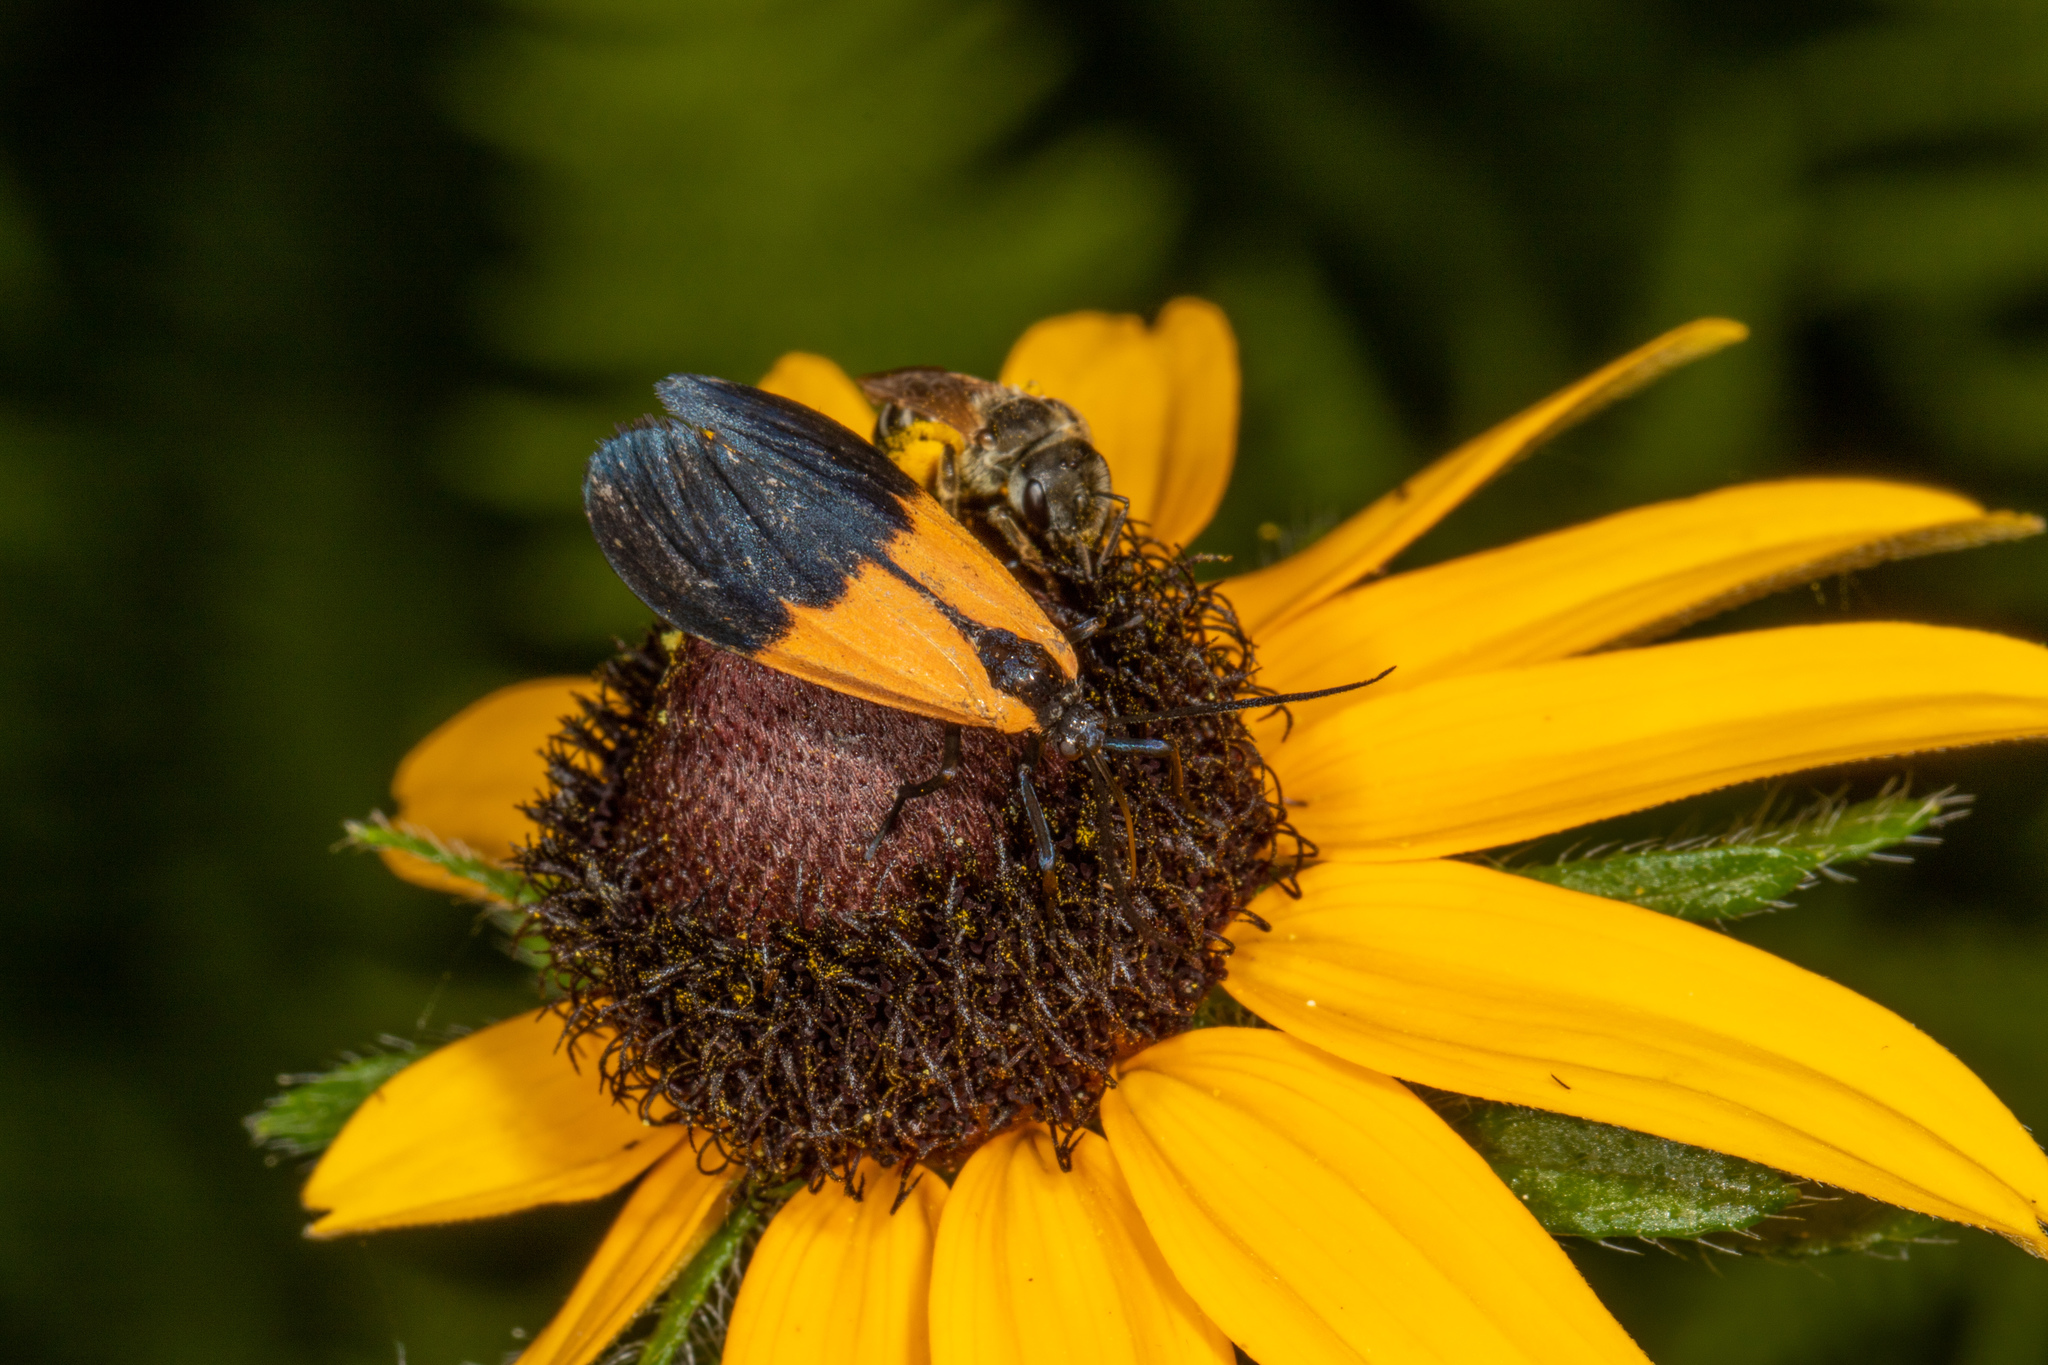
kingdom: Animalia
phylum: Arthropoda
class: Insecta
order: Lepidoptera
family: Erebidae
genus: Lycomorpha
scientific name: Lycomorpha pholus
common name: Black-and-yellow lichen moth
